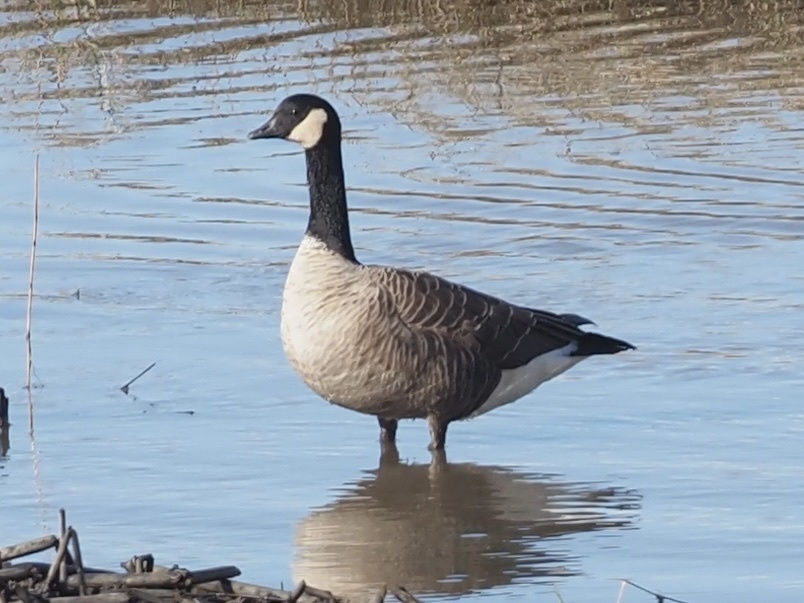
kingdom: Animalia
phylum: Chordata
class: Aves
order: Anseriformes
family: Anatidae
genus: Branta
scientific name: Branta canadensis
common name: Canada goose
